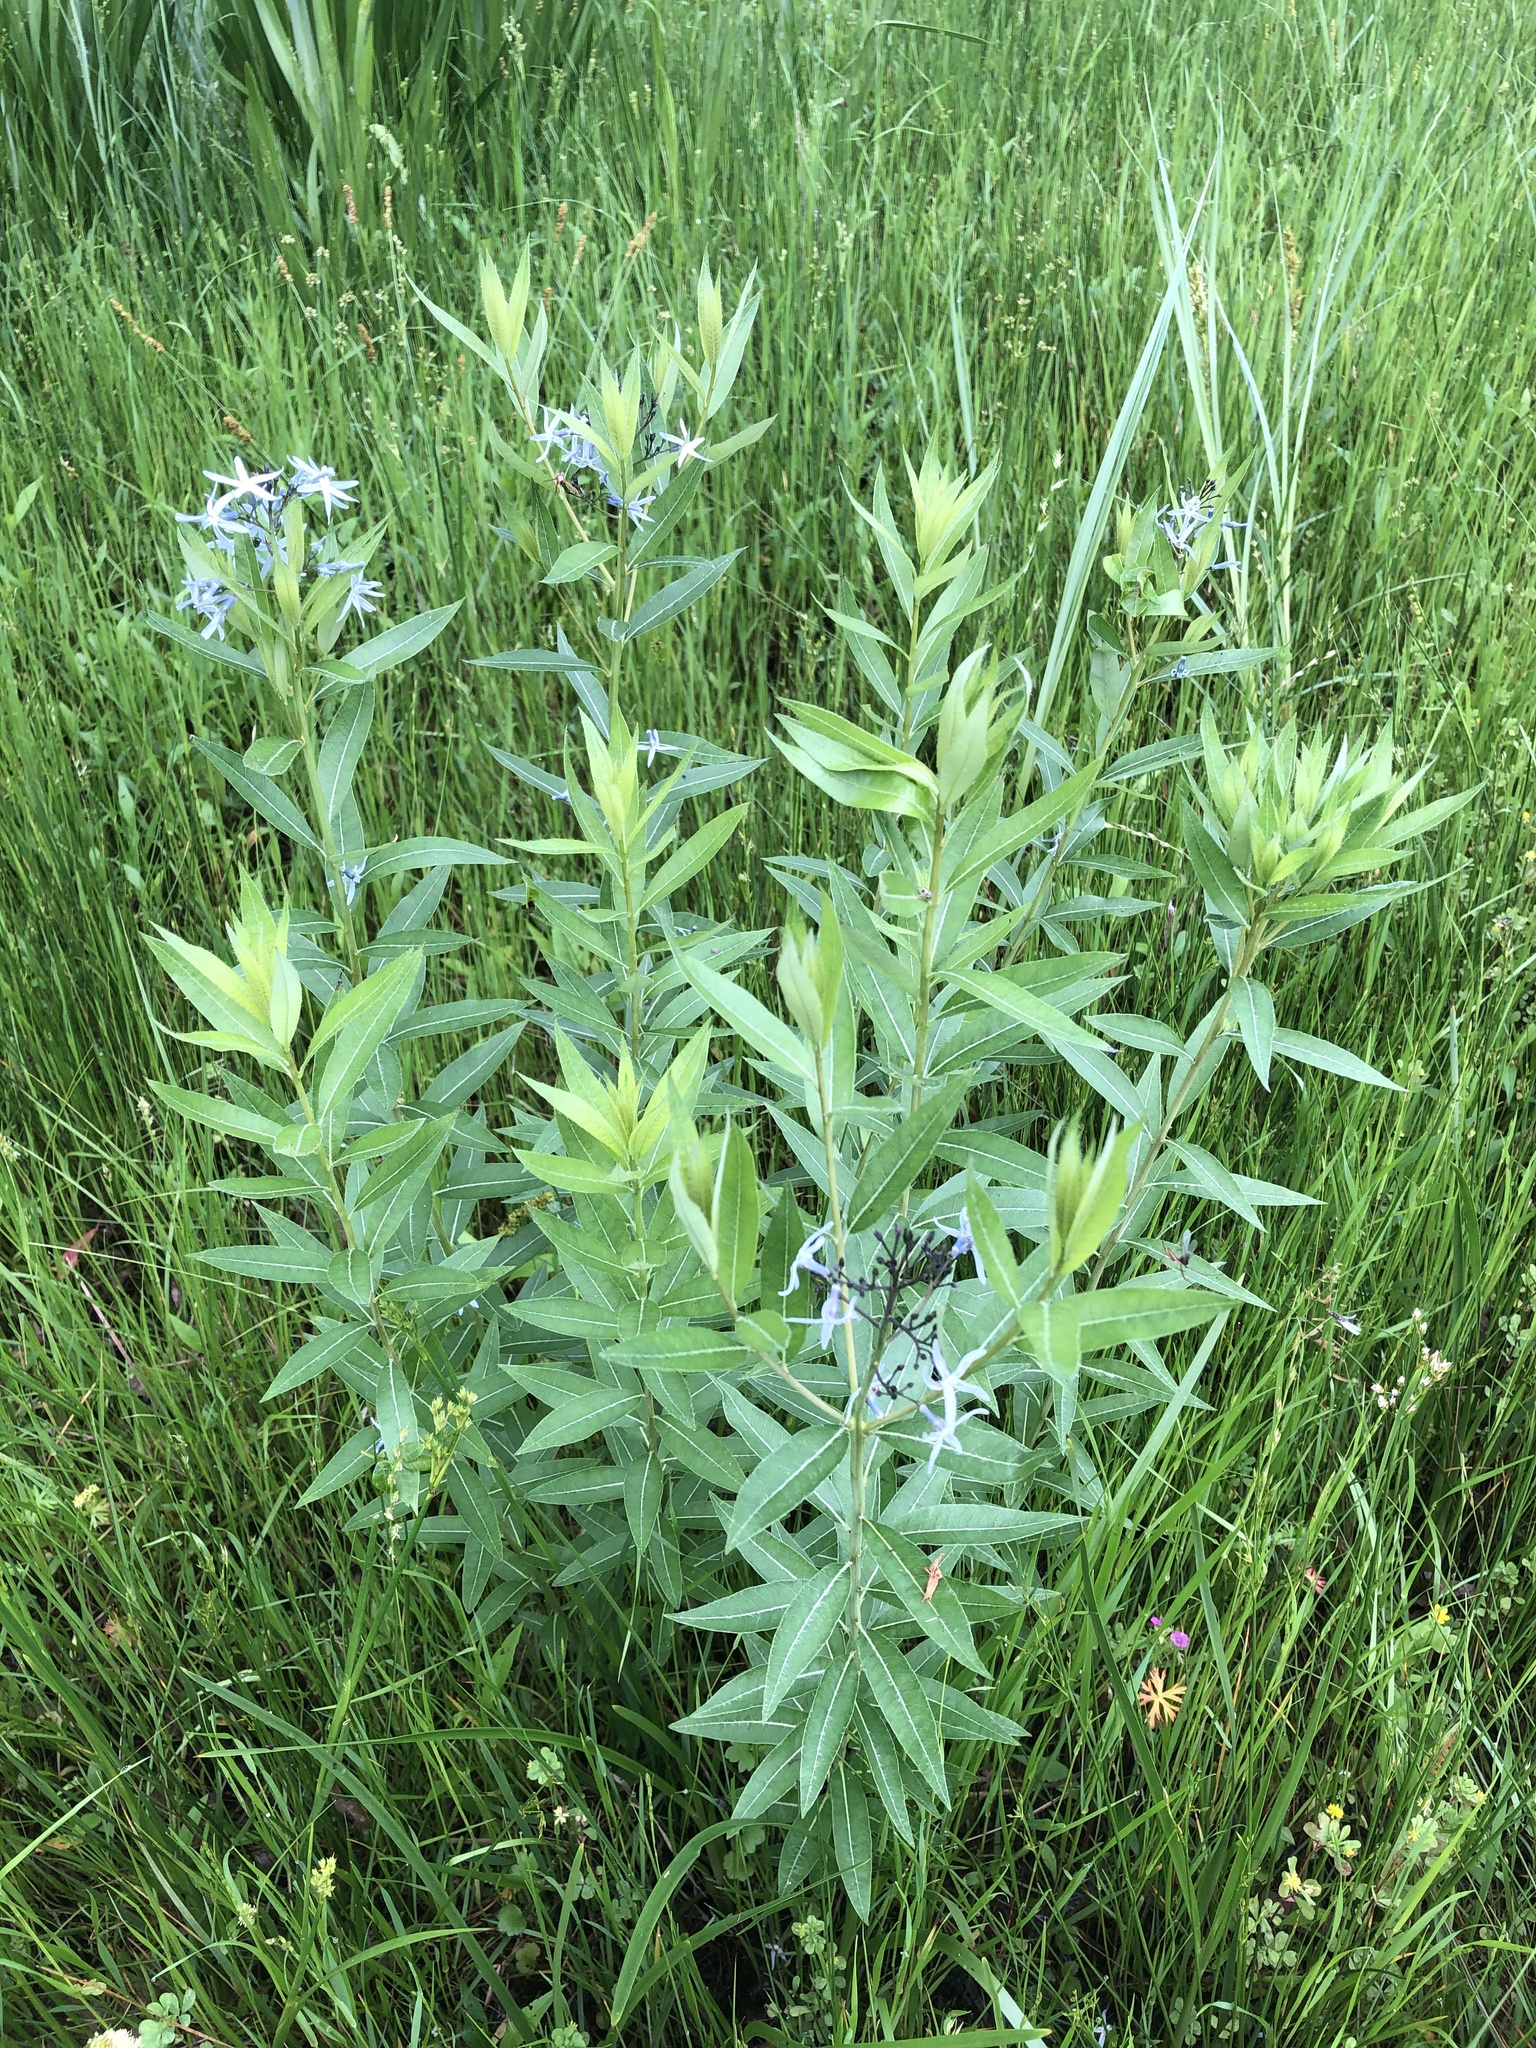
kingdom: Plantae
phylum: Tracheophyta
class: Magnoliopsida
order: Gentianales
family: Apocynaceae
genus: Amsonia
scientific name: Amsonia tabernaemontana
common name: Texas-star
